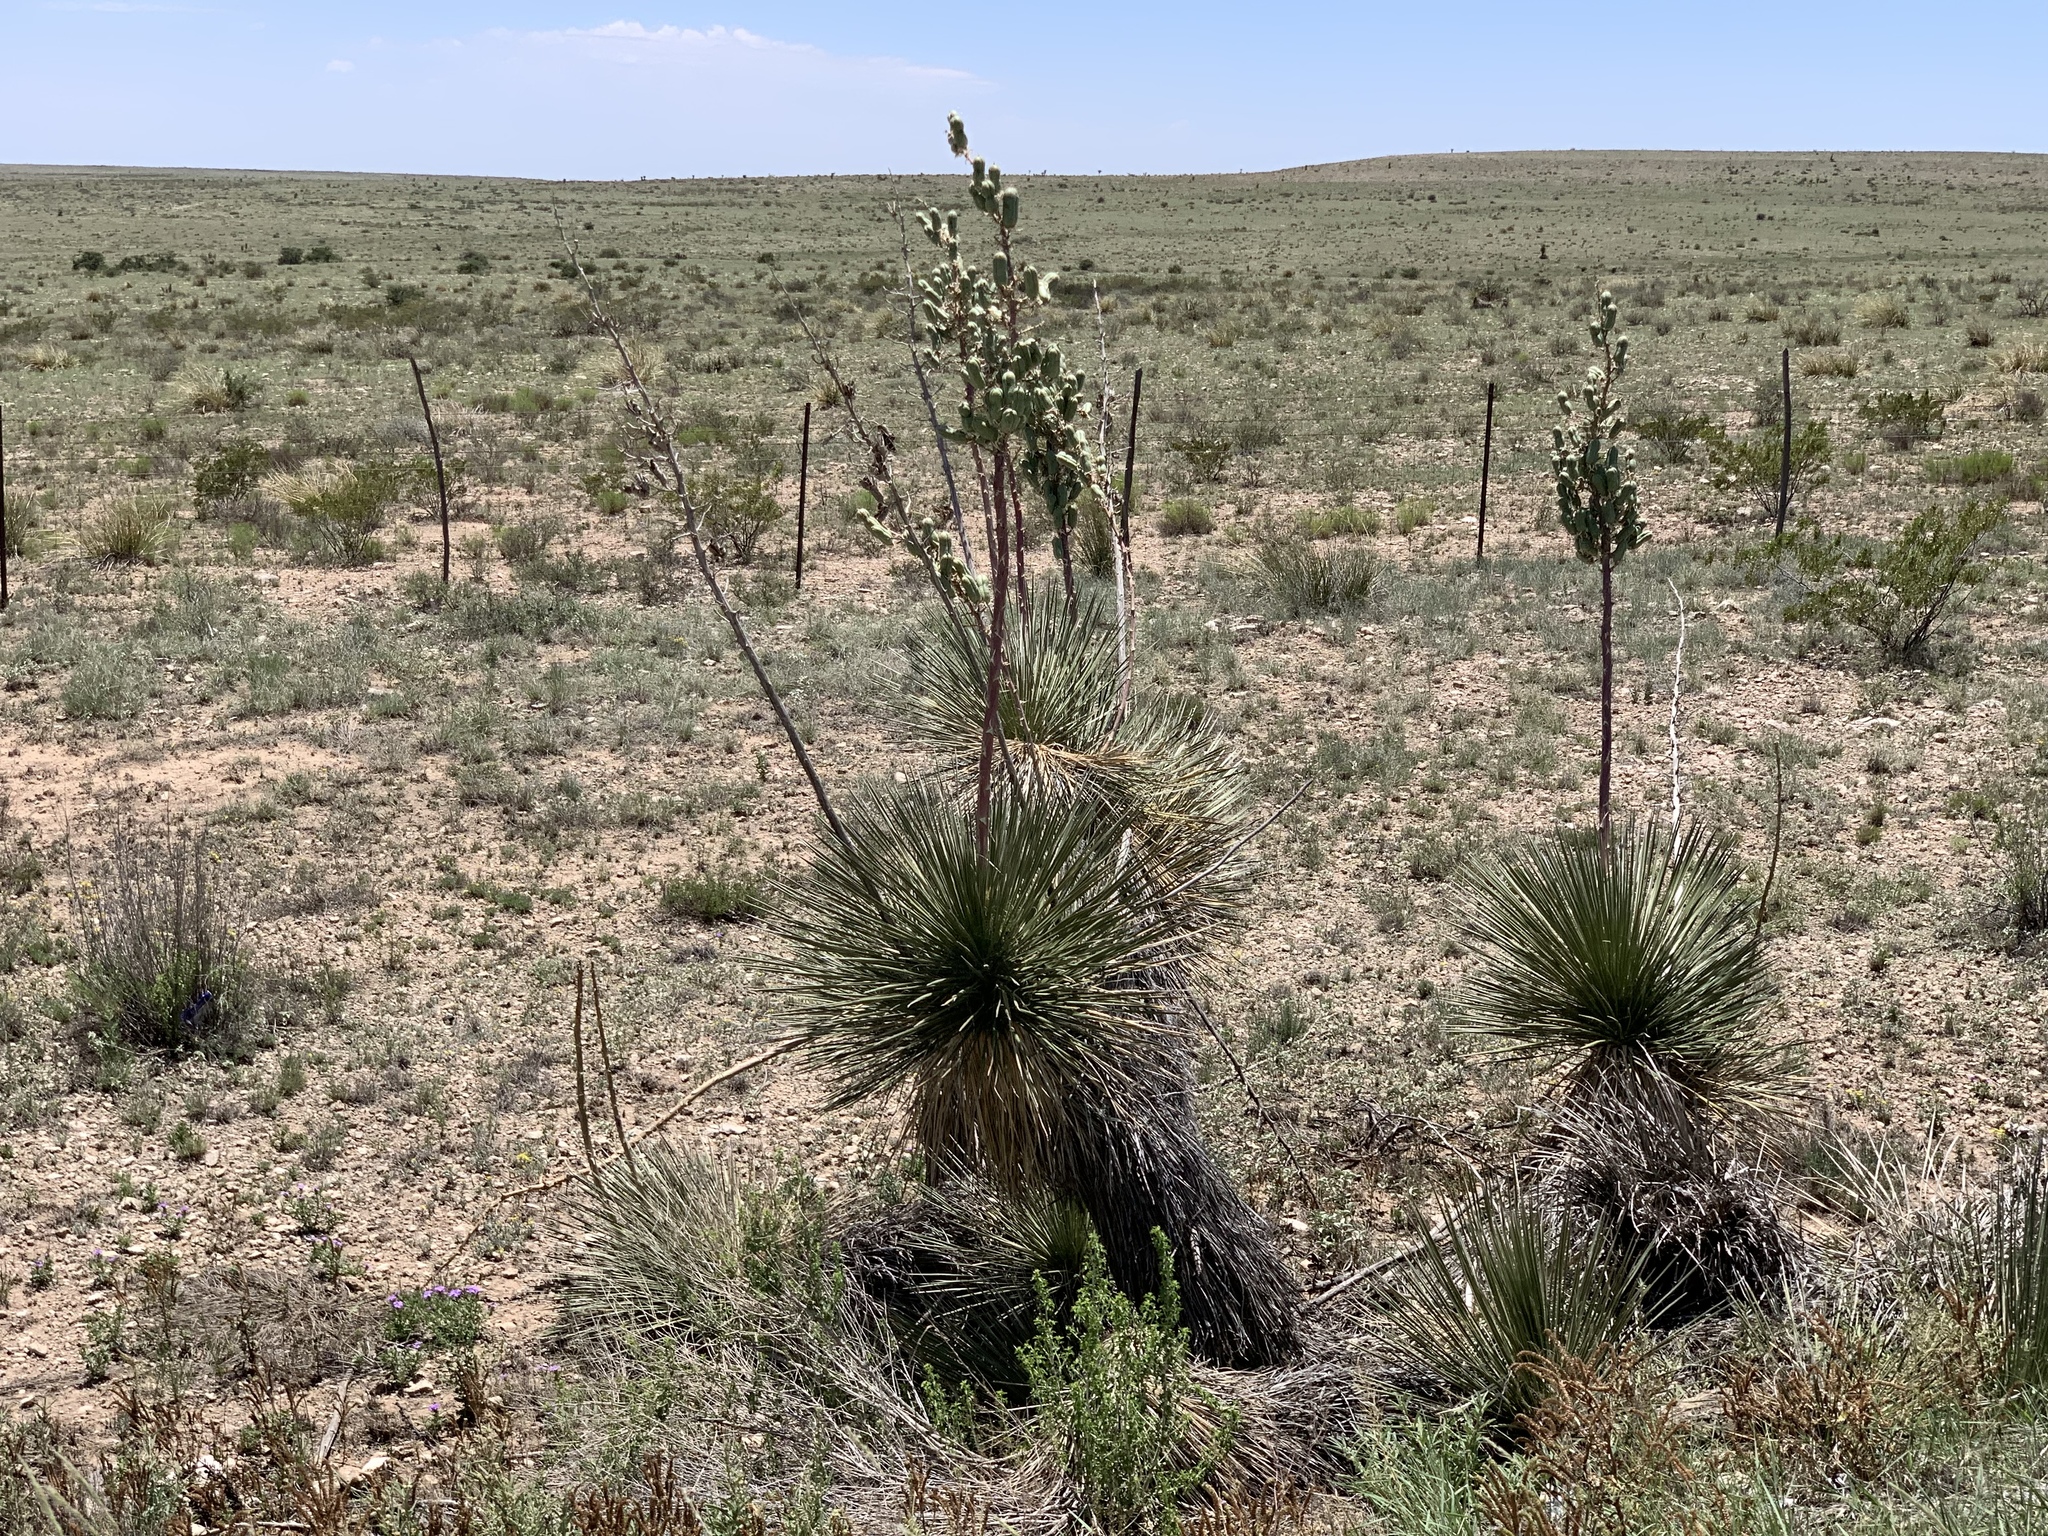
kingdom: Plantae
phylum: Tracheophyta
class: Liliopsida
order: Asparagales
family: Asparagaceae
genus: Yucca
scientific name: Yucca elata
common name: Palmella
